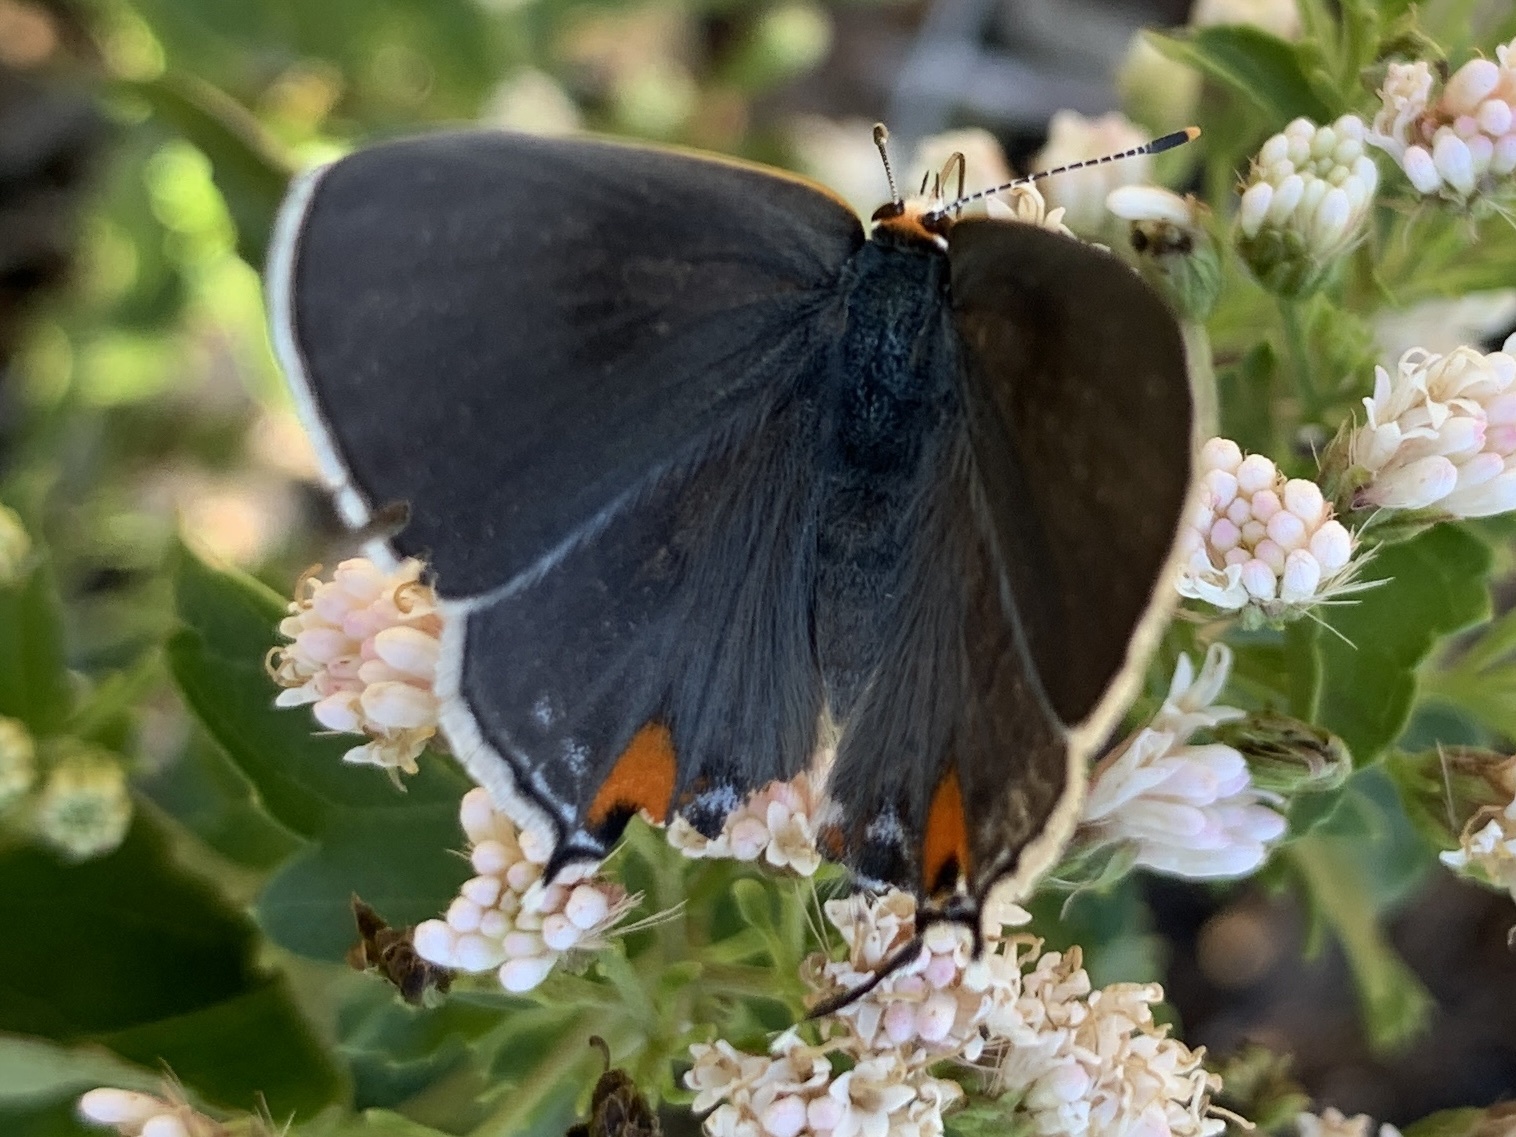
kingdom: Animalia
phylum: Arthropoda
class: Insecta
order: Lepidoptera
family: Lycaenidae
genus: Strymon
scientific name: Strymon melinus
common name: Gray hairstreak
